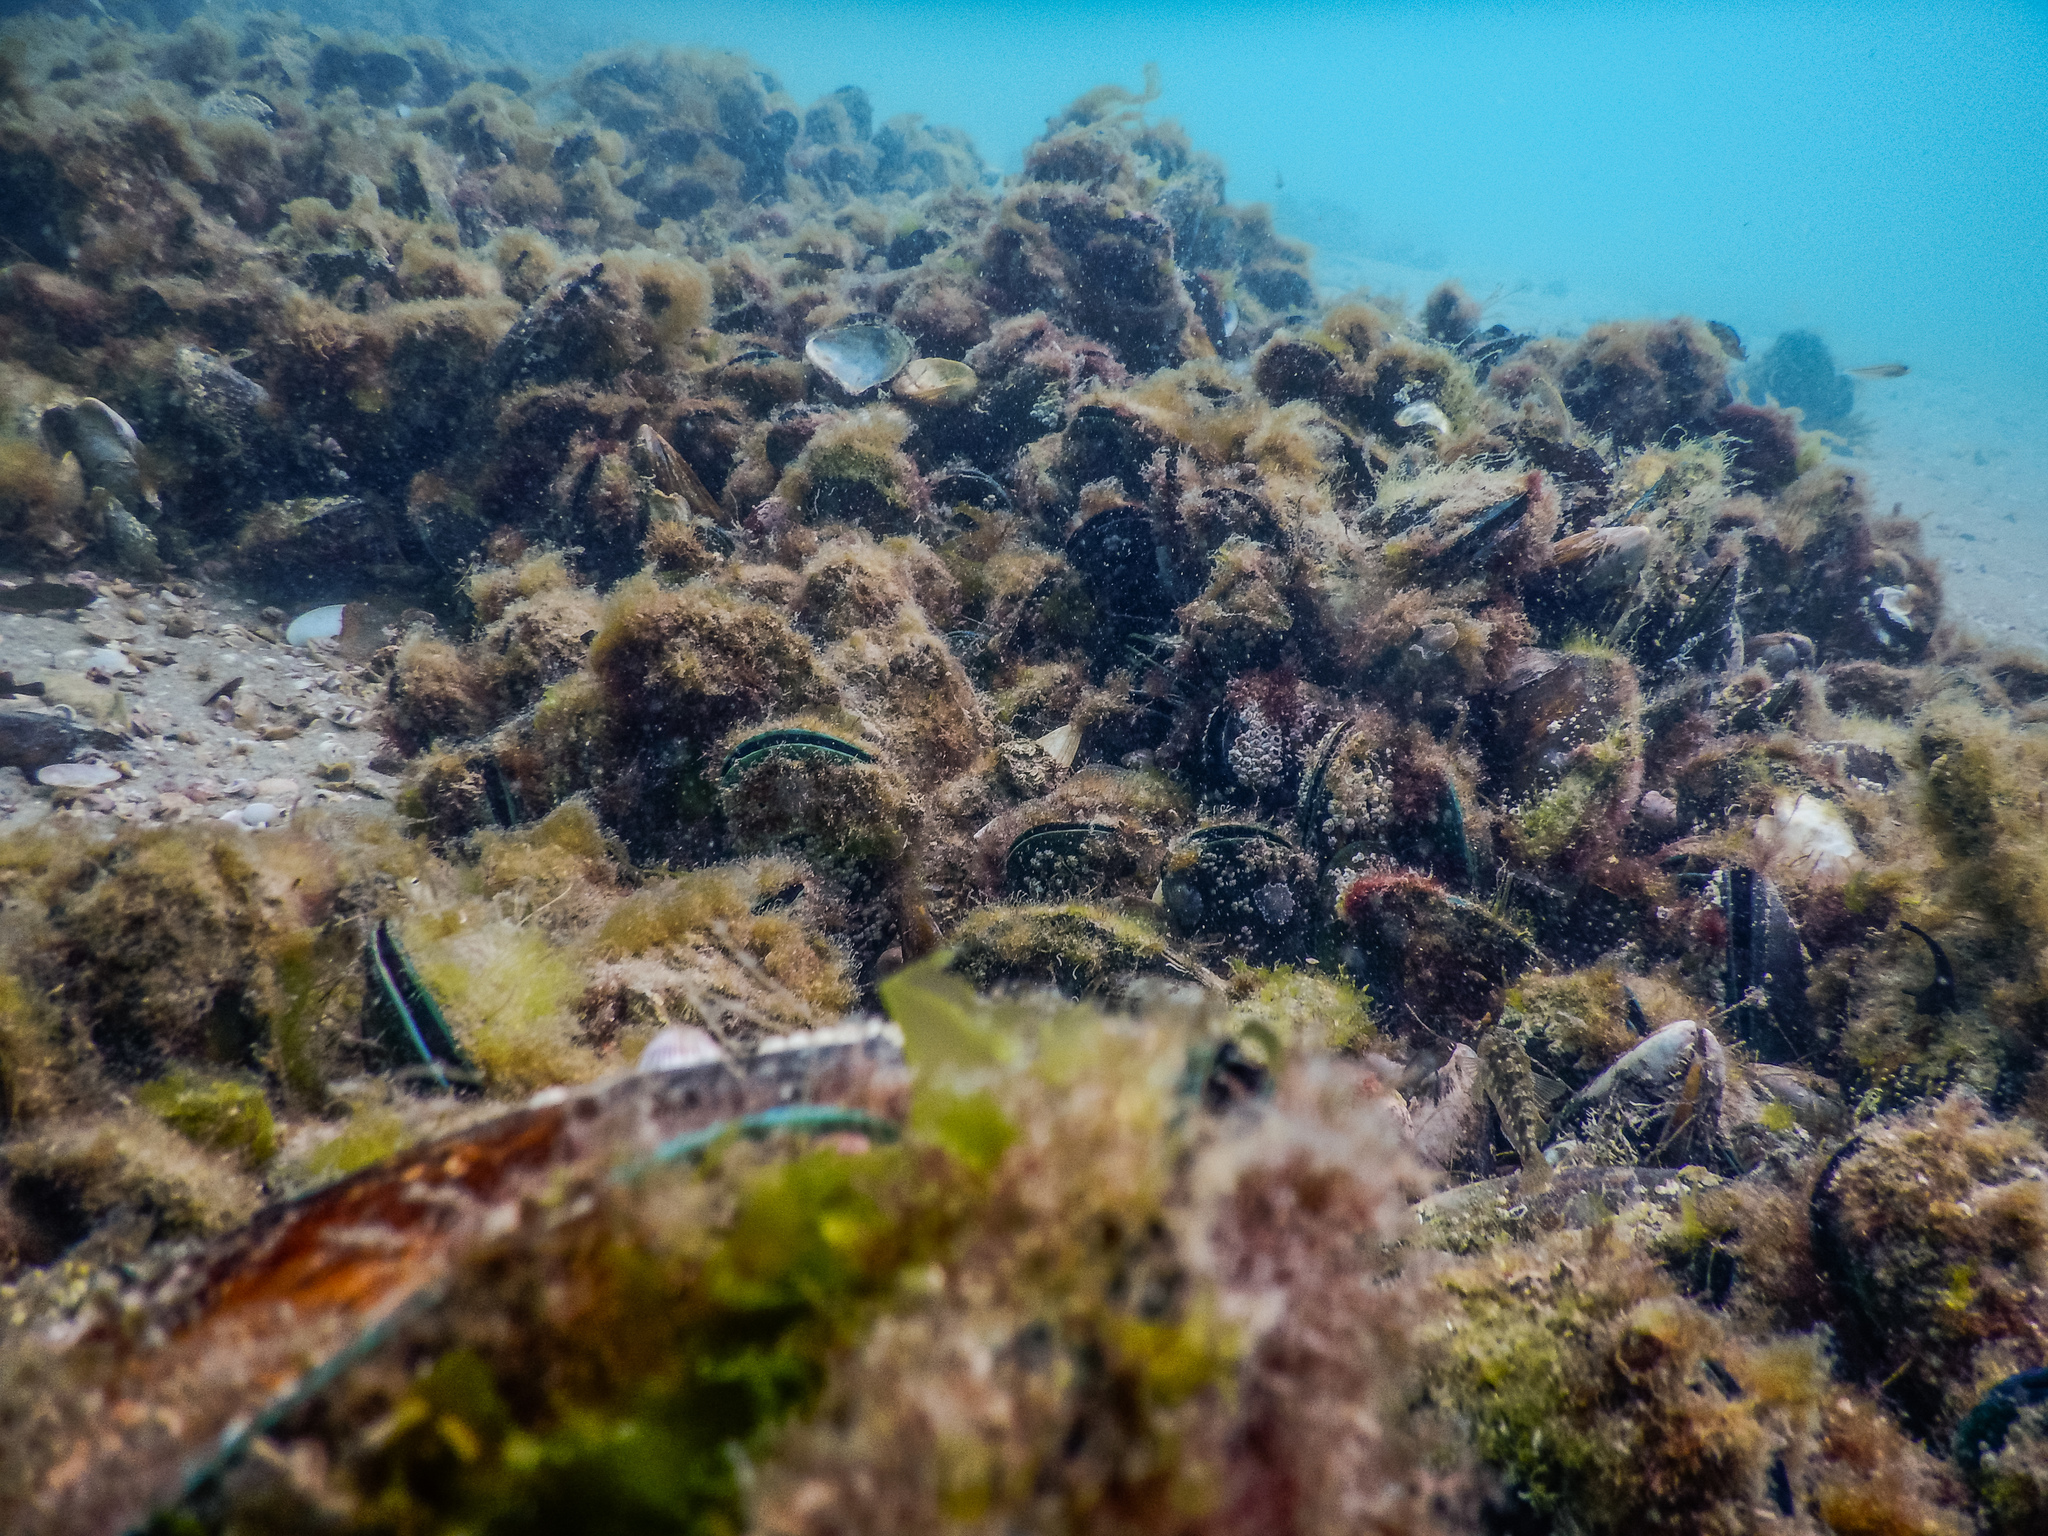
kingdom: Animalia
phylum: Mollusca
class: Bivalvia
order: Mytilida
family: Mytilidae
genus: Perna
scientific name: Perna canaliculus
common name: New zealand greenshelltm
